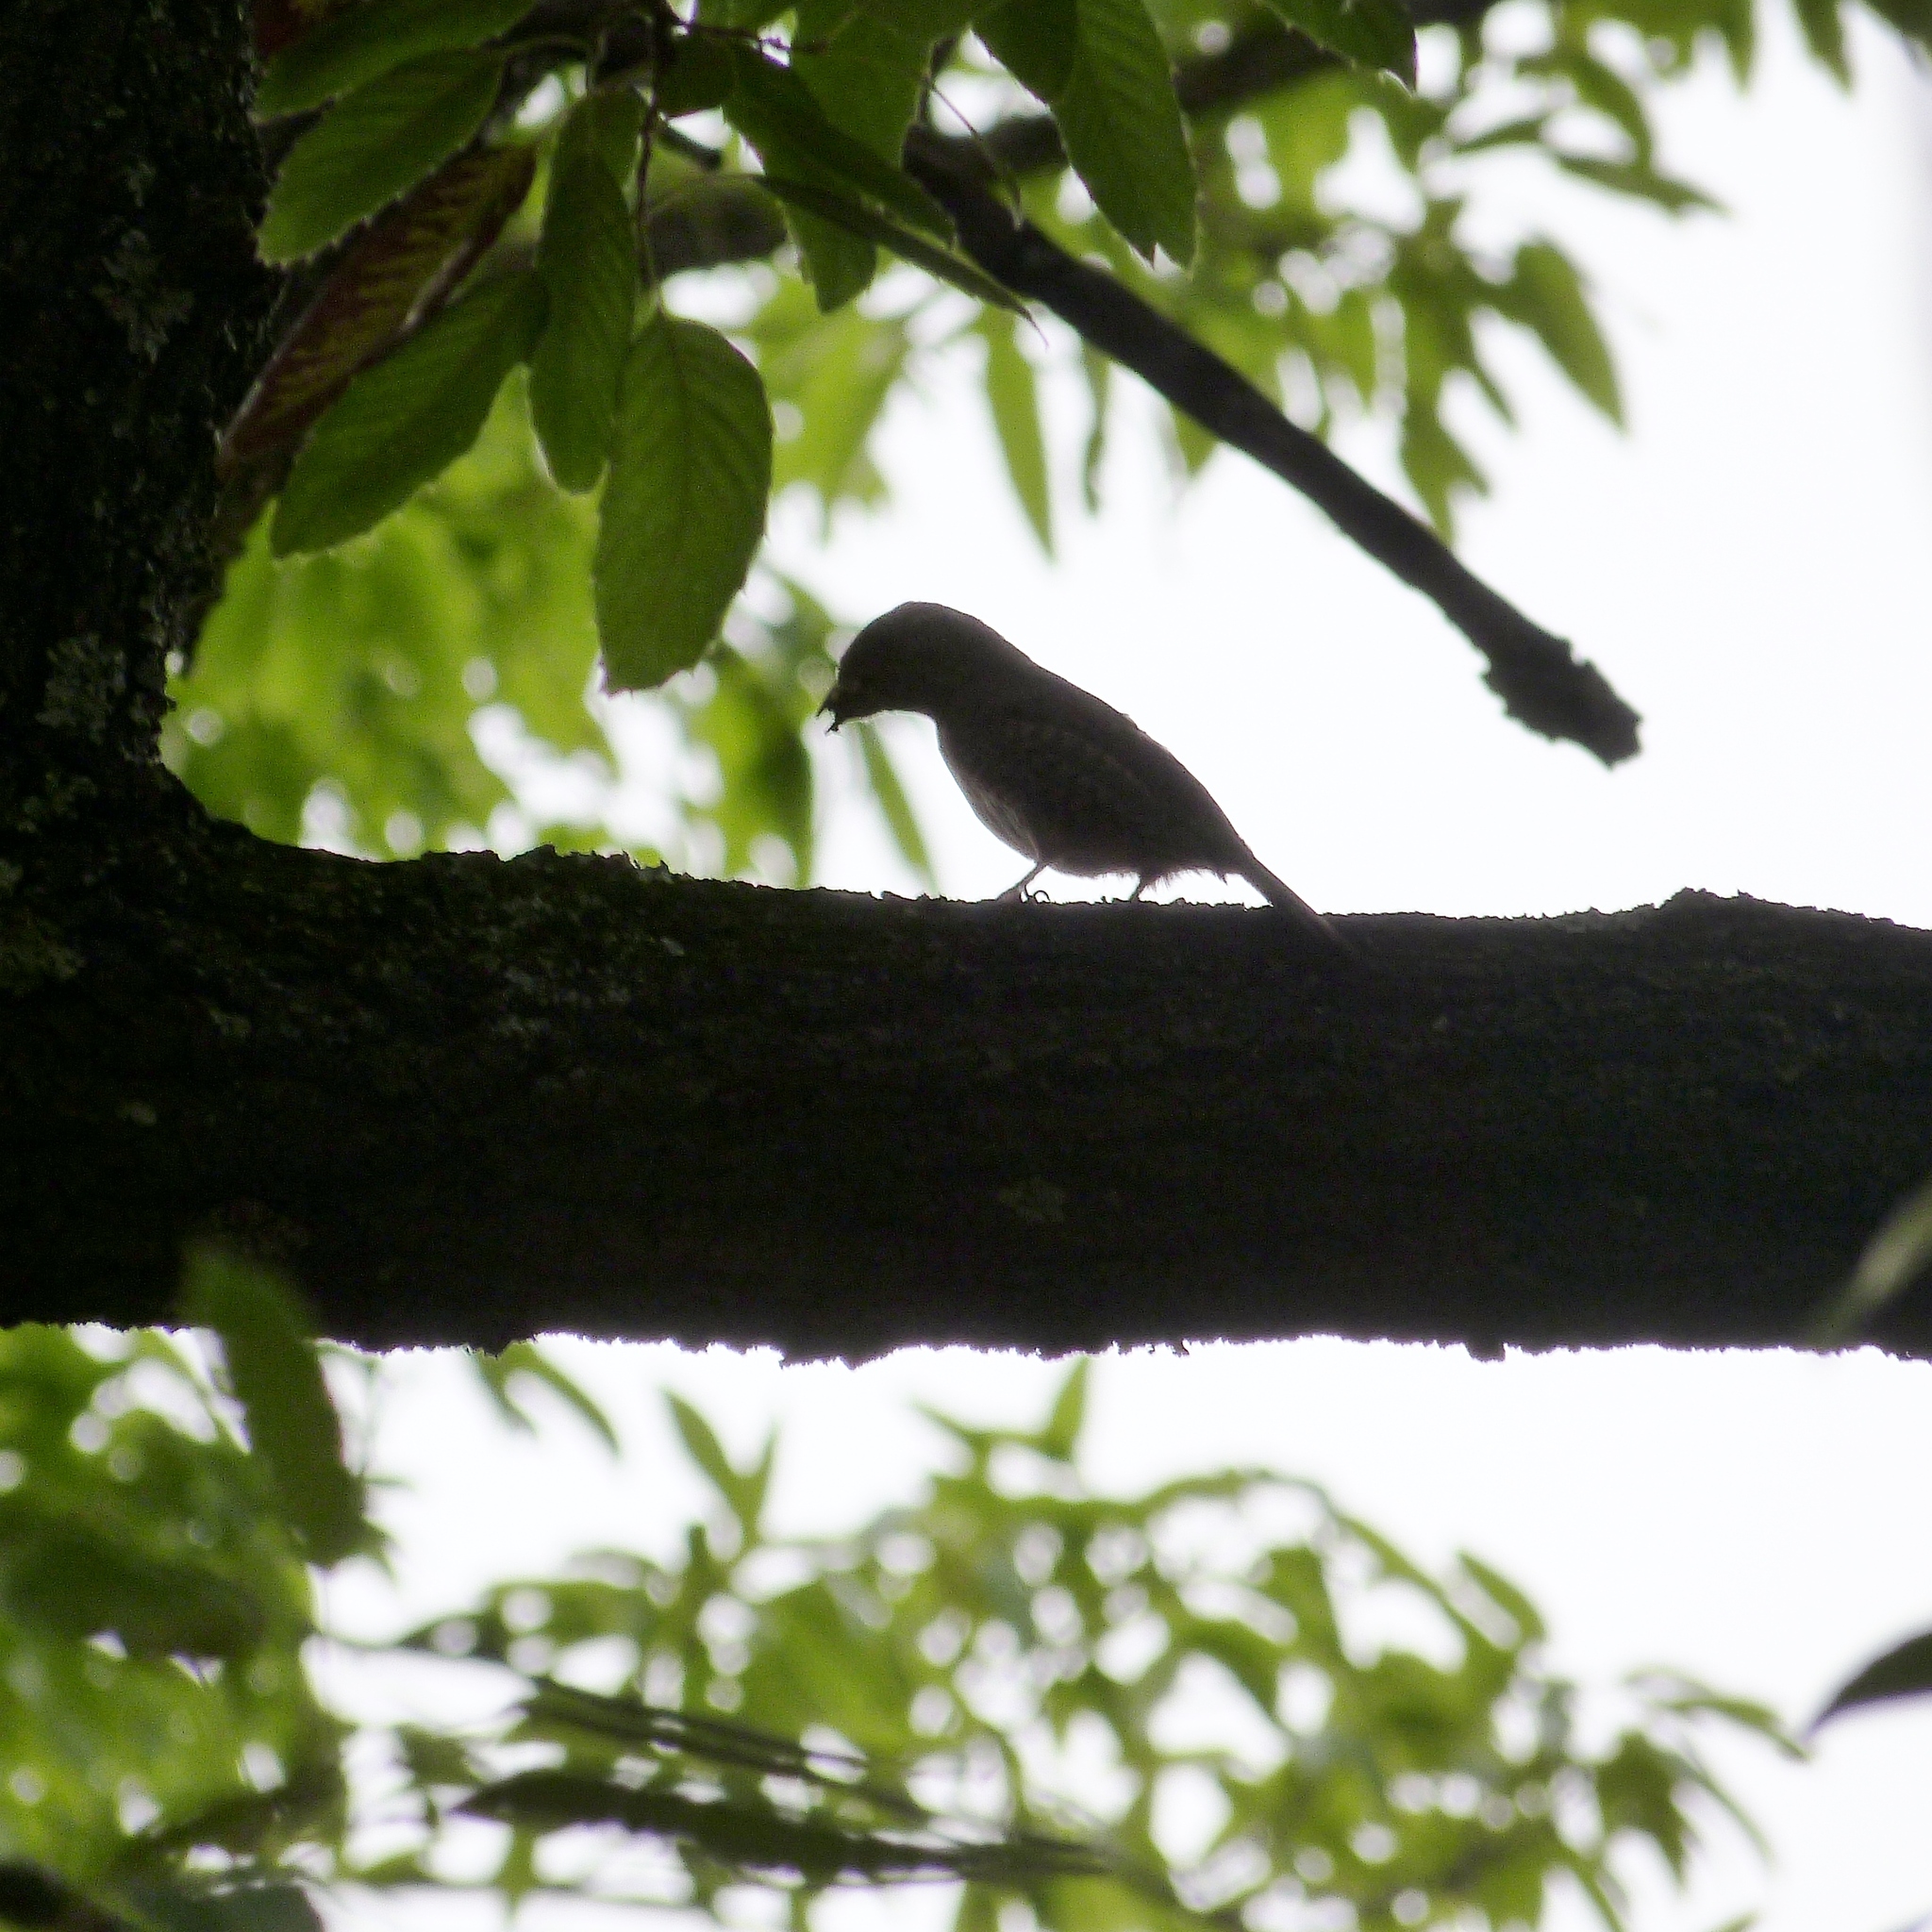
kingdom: Animalia
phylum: Chordata
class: Aves
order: Piciformes
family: Picidae
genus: Jynx
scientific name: Jynx ruficollis
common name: Red-throated wryneck
